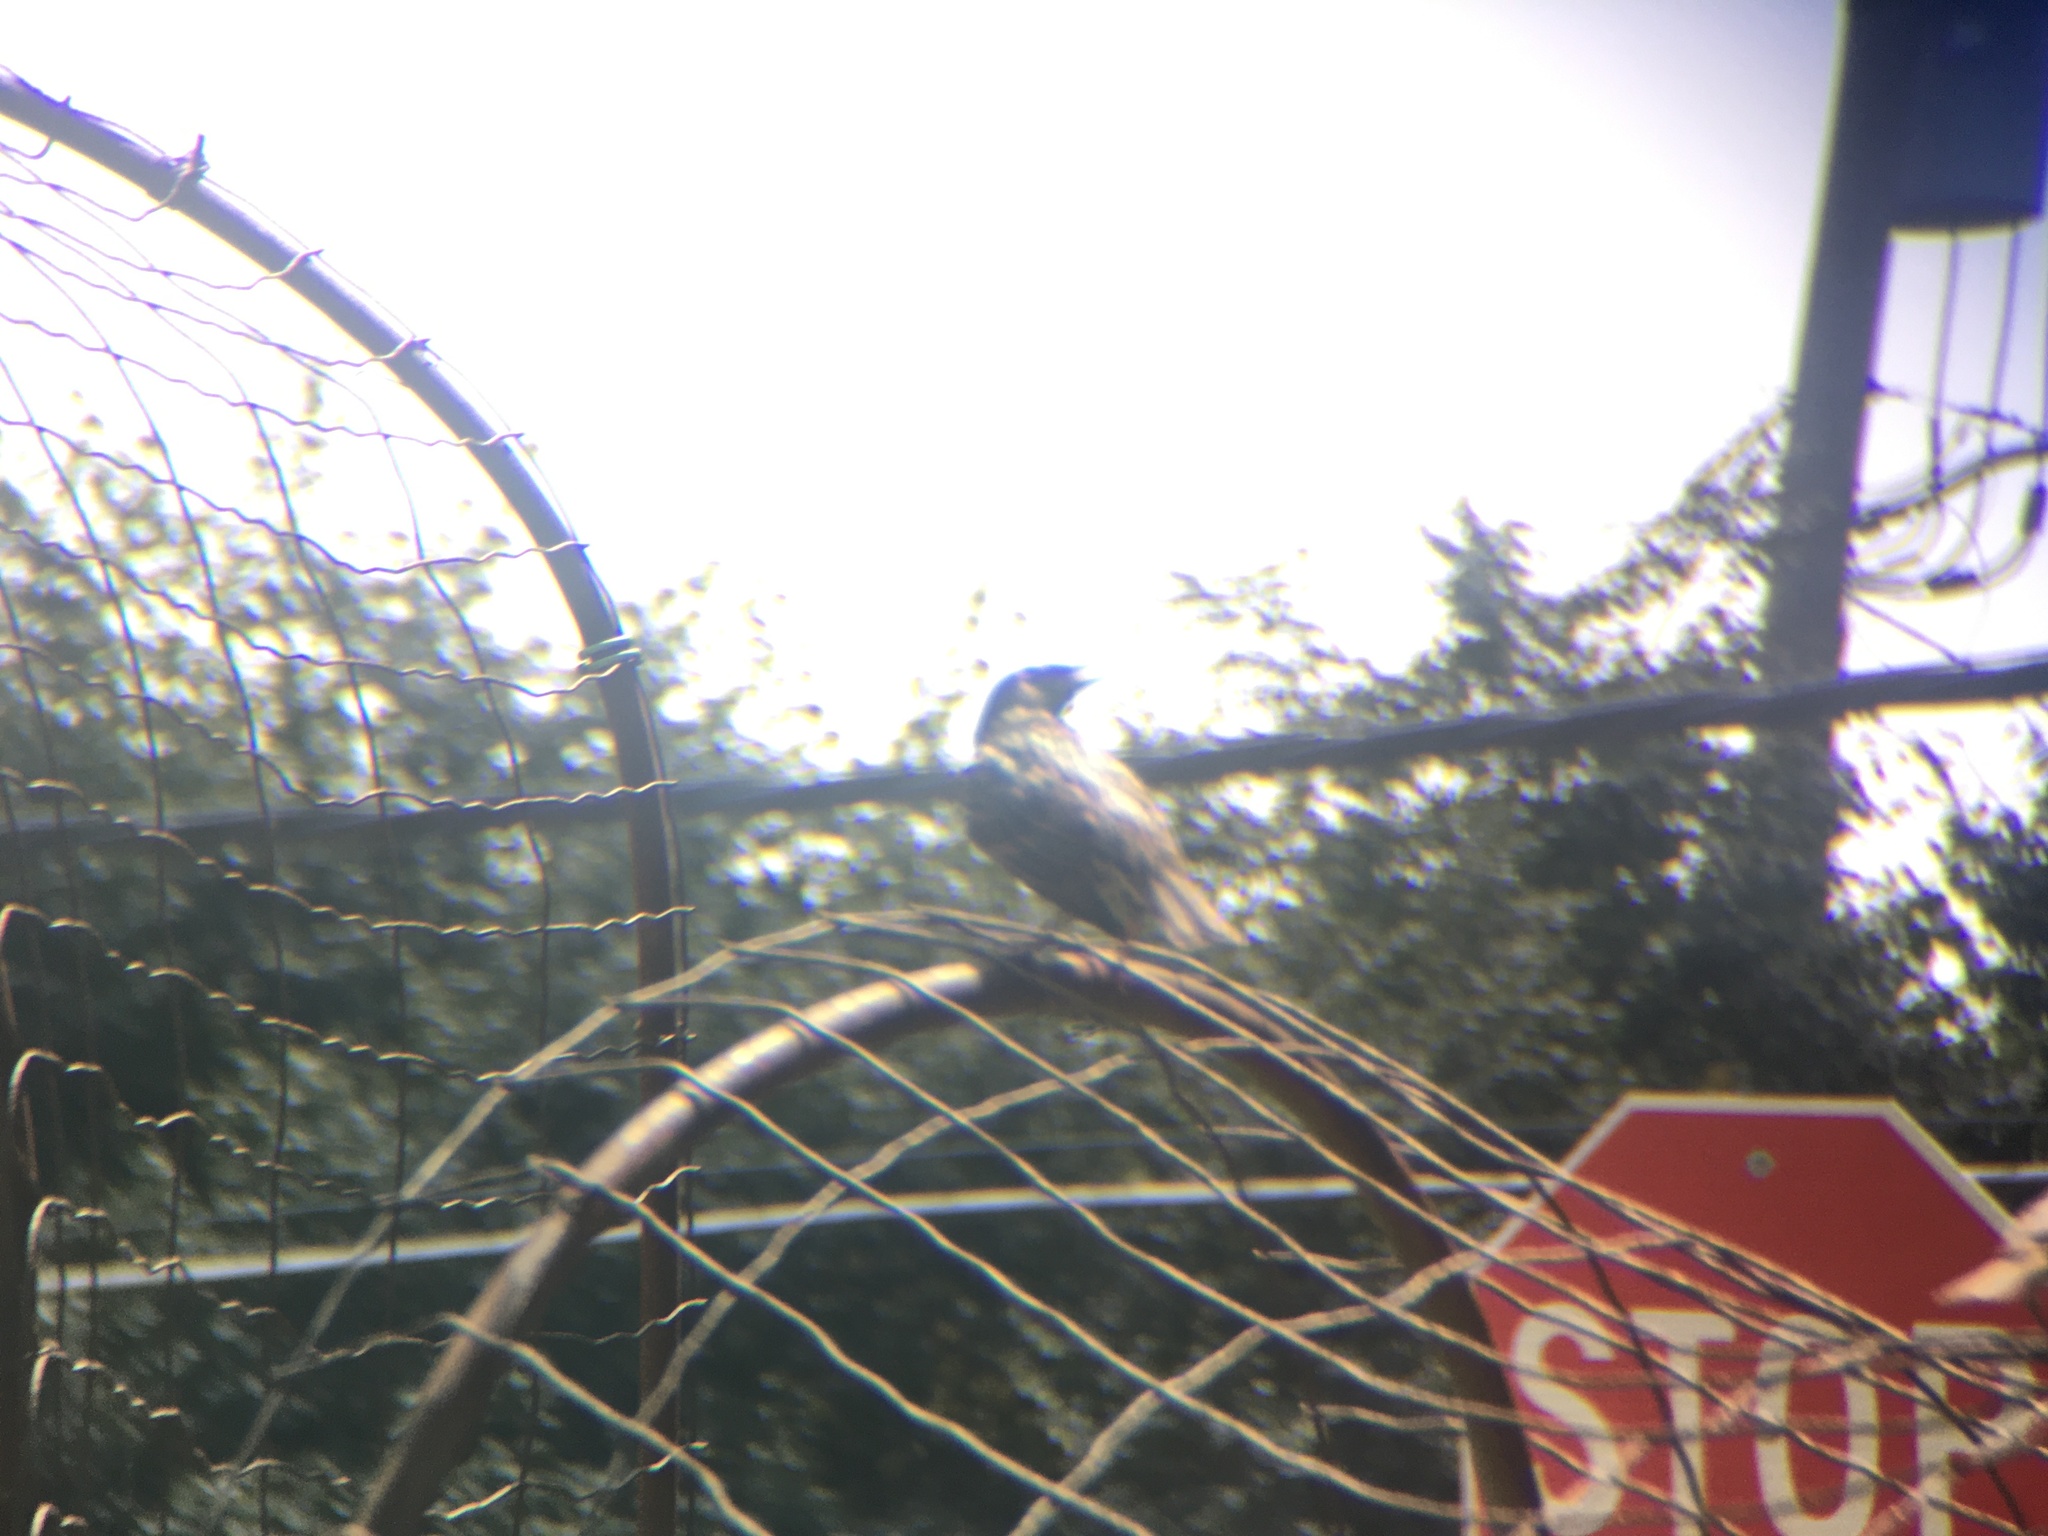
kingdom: Animalia
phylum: Chordata
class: Aves
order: Passeriformes
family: Sturnidae
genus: Sturnus
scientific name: Sturnus vulgaris
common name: Common starling
